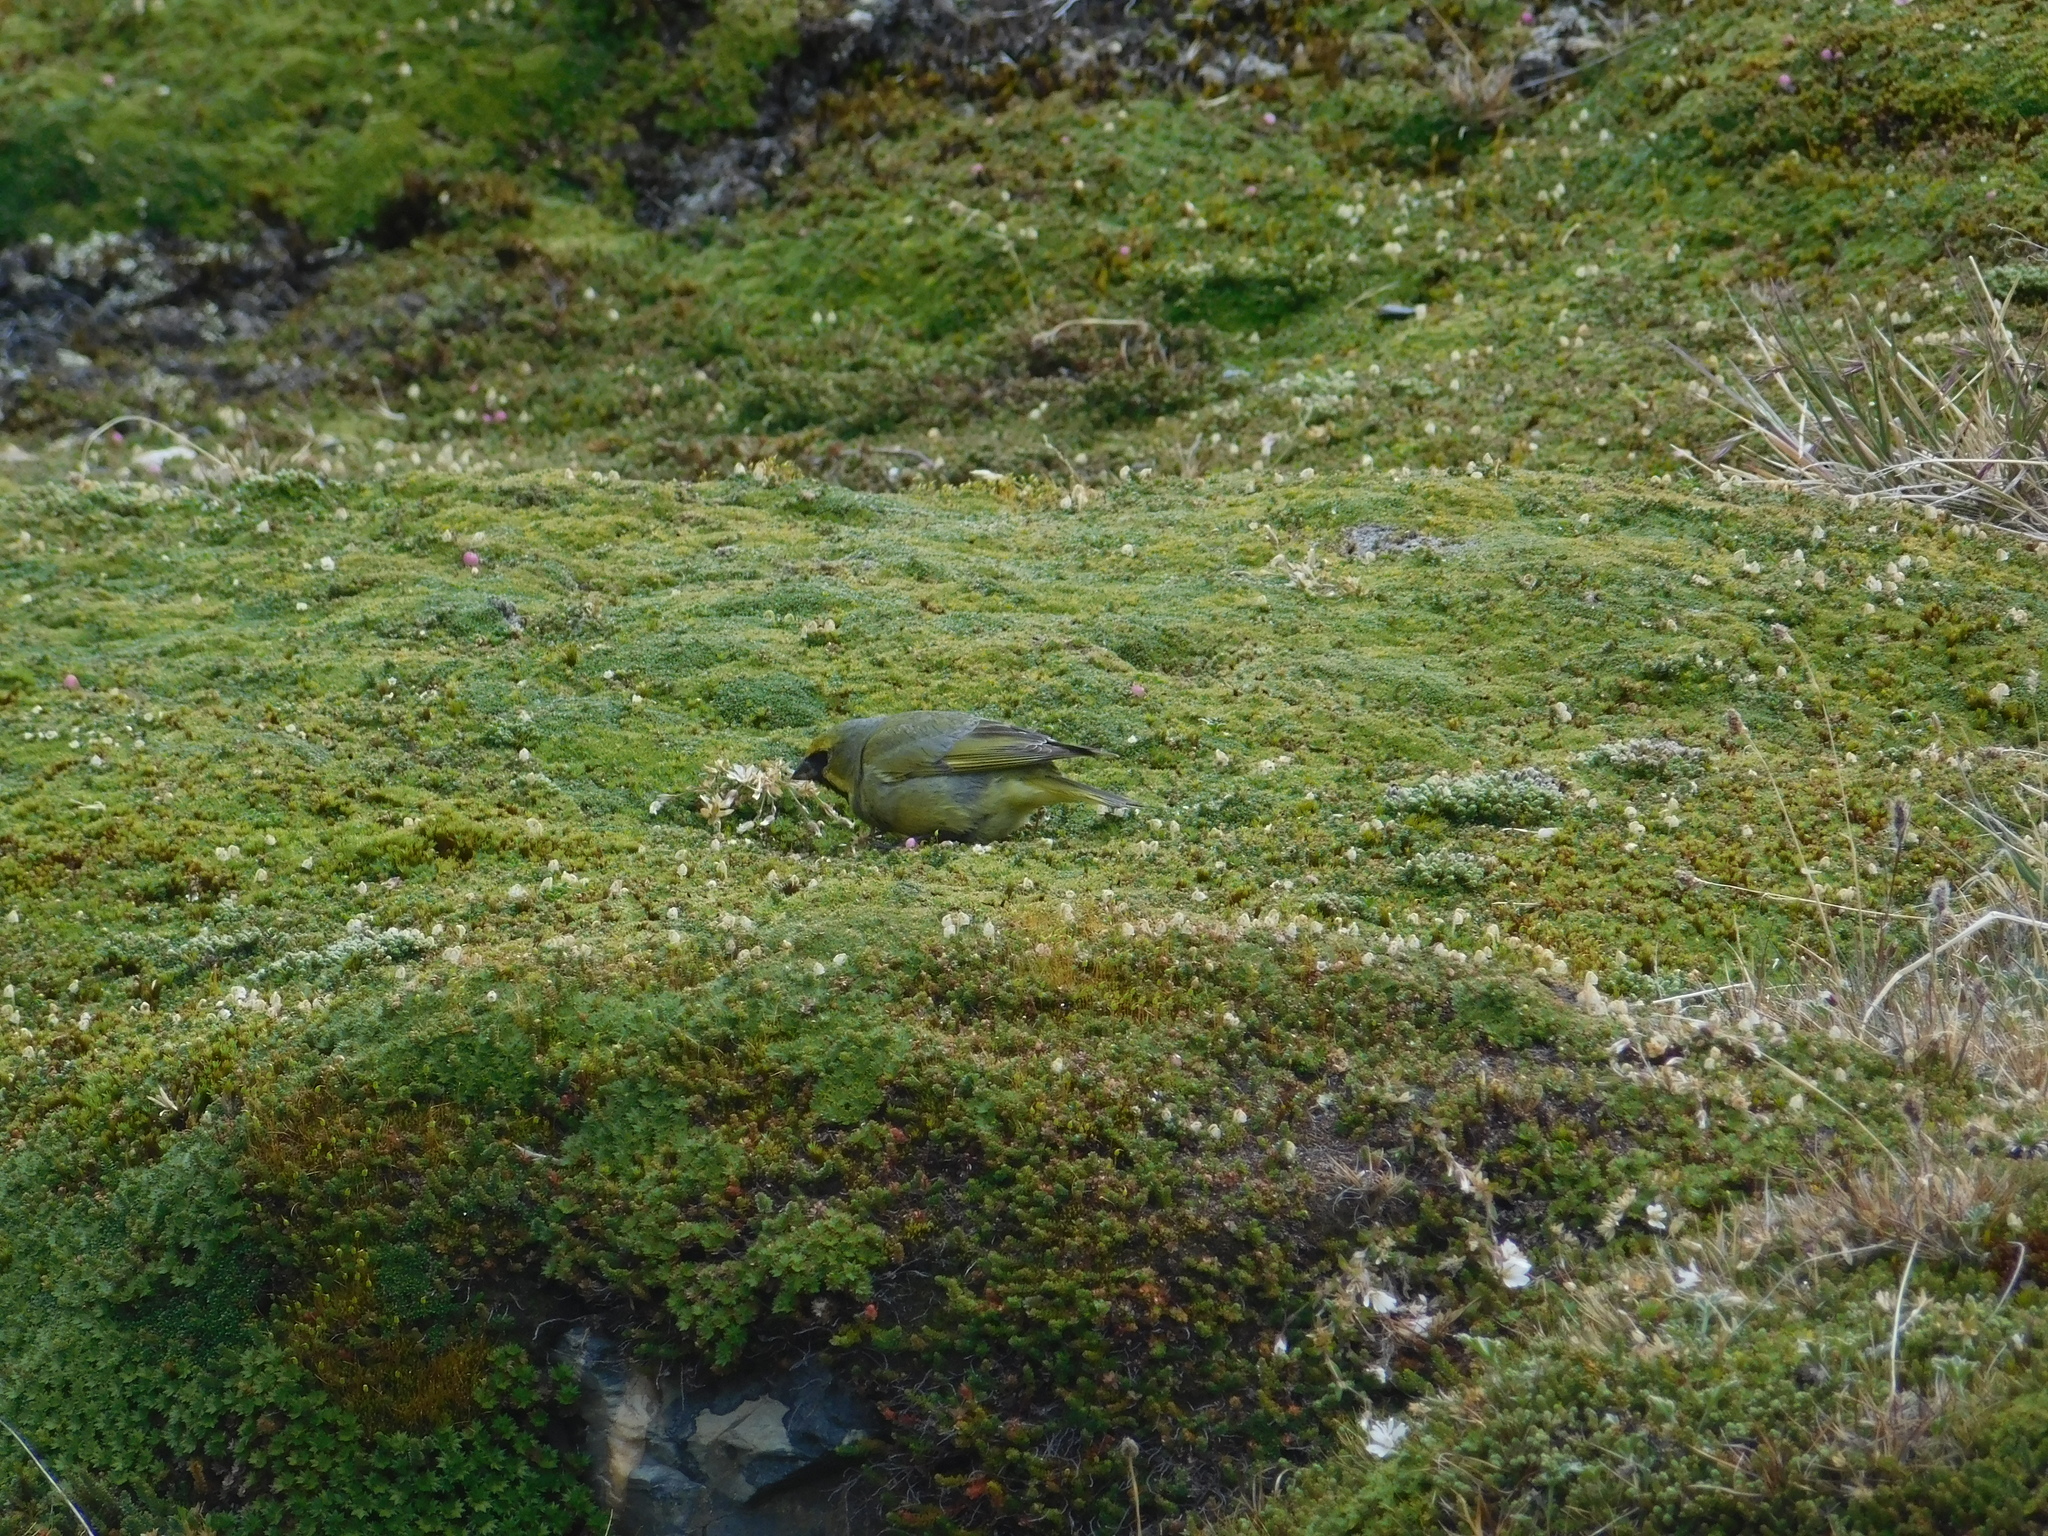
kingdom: Animalia
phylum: Chordata
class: Aves
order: Passeriformes
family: Thraupidae
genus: Melanodera
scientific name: Melanodera xanthogramma
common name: Yellow-bridled finch
